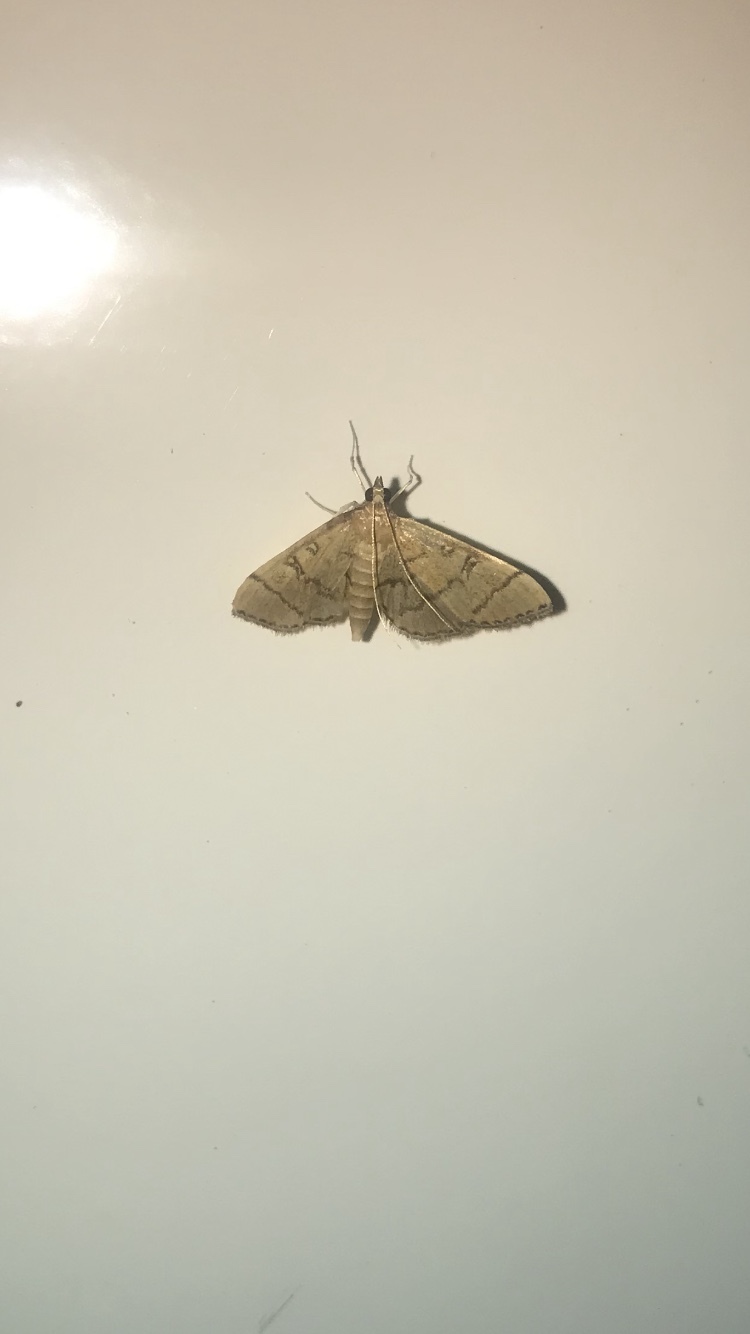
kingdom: Animalia
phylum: Arthropoda
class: Insecta
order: Lepidoptera
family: Crambidae
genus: Lamprosema
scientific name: Lamprosema Blepharomastix ranalis
